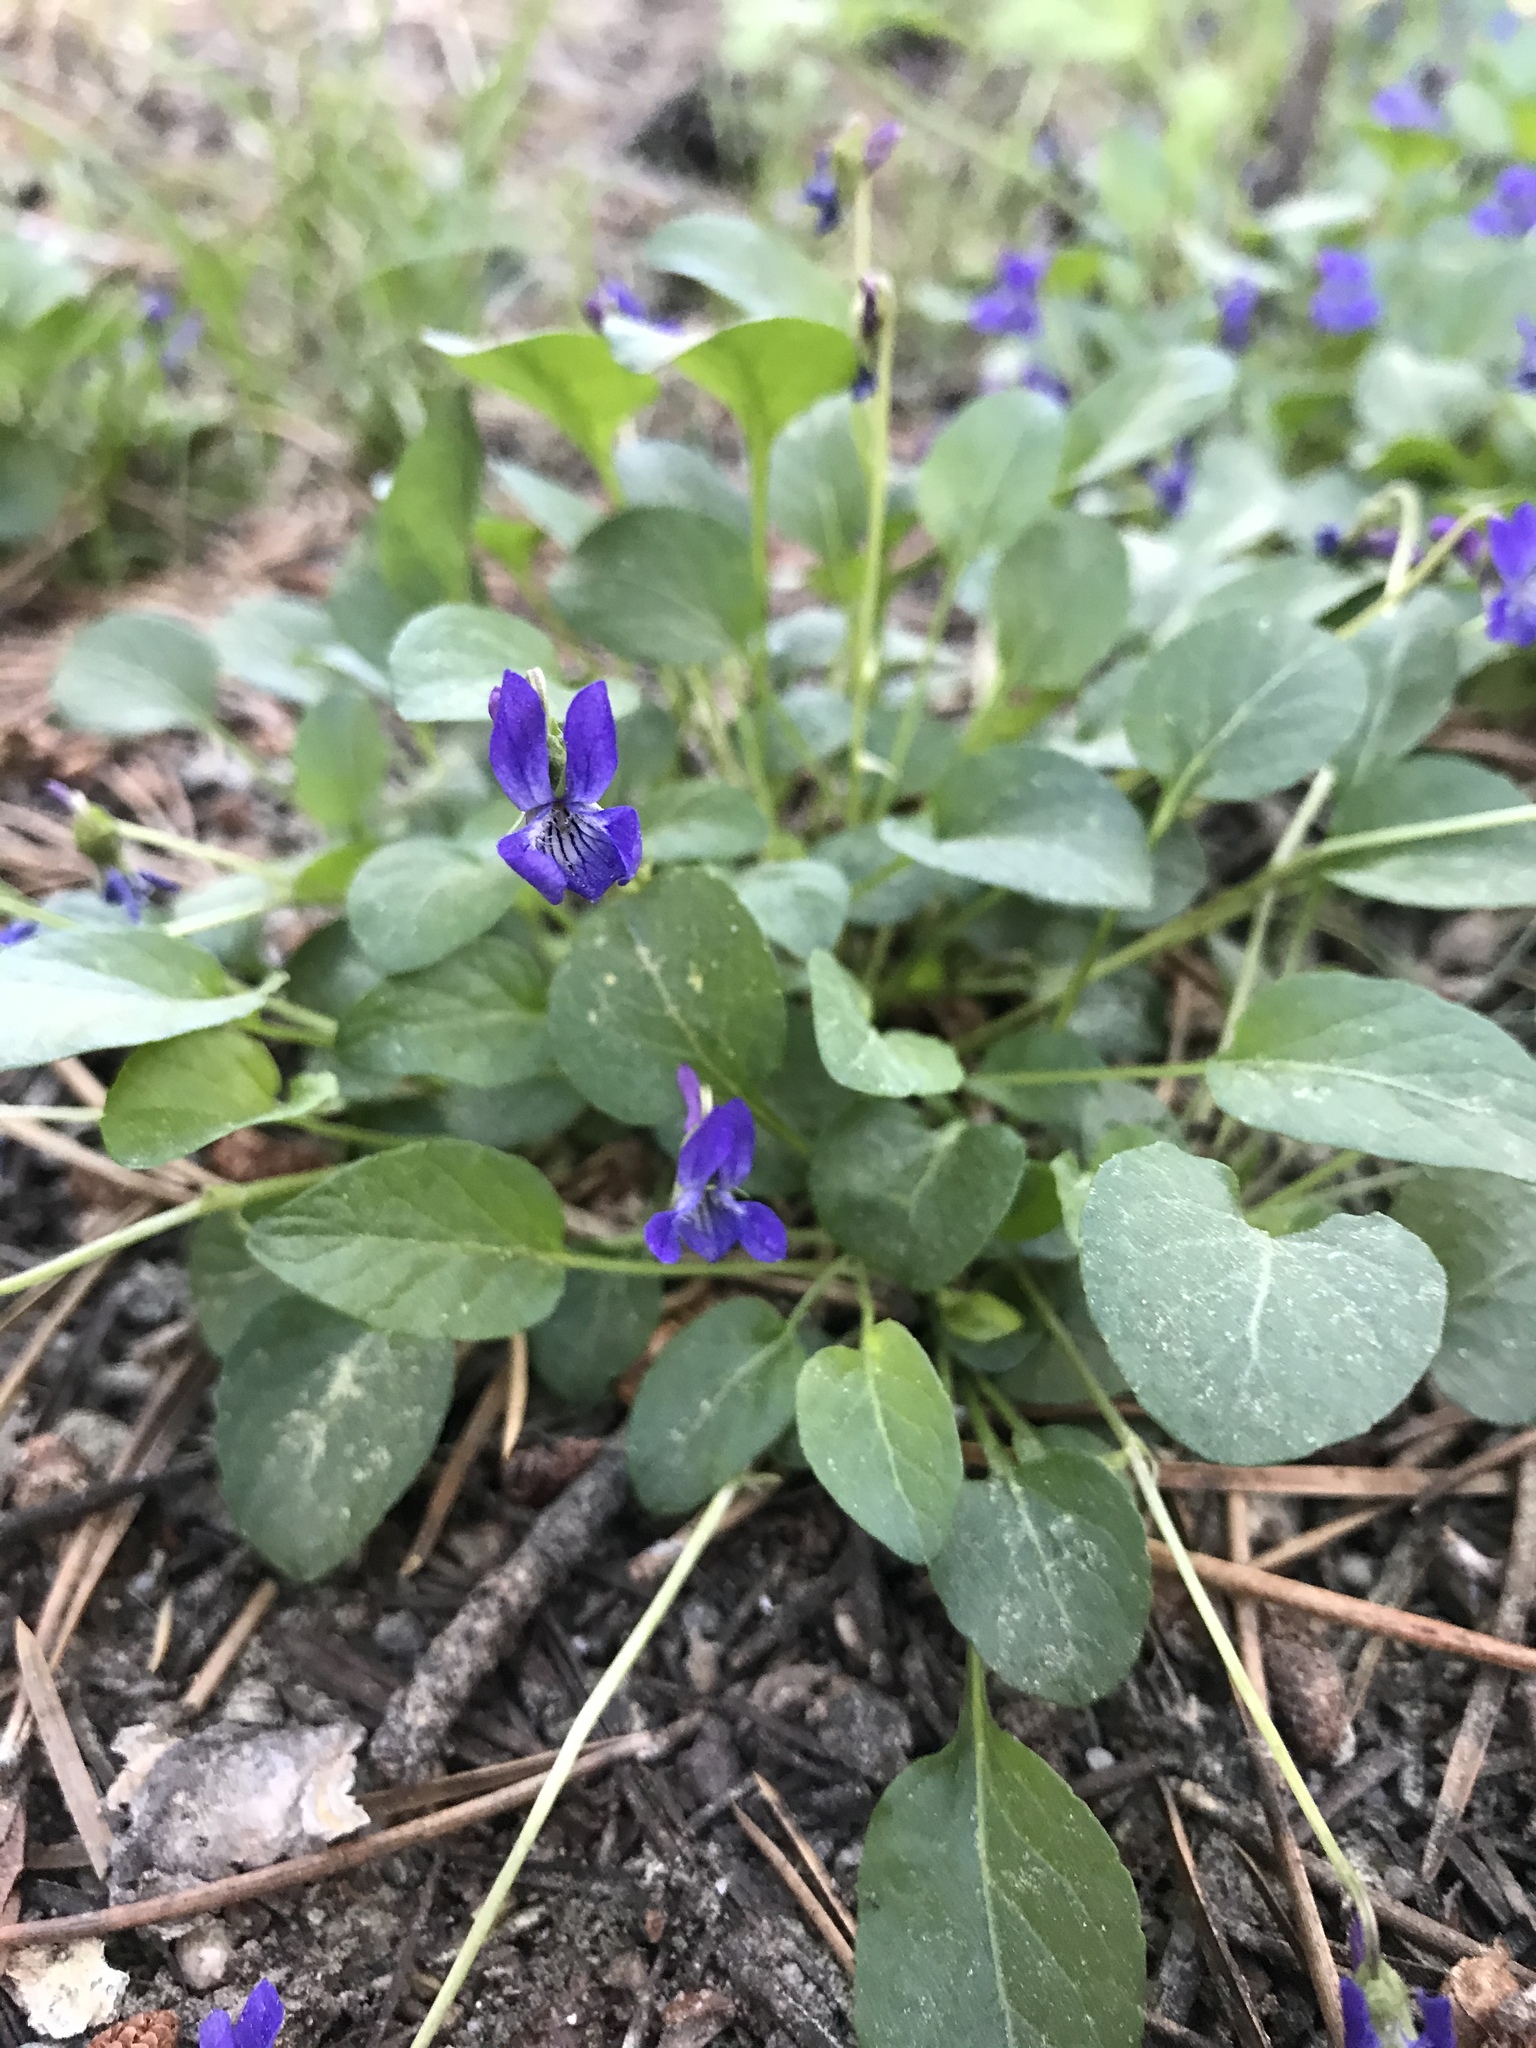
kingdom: Plantae
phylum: Tracheophyta
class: Magnoliopsida
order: Malpighiales
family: Violaceae
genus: Viola
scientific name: Viola adunca
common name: Sand violet
